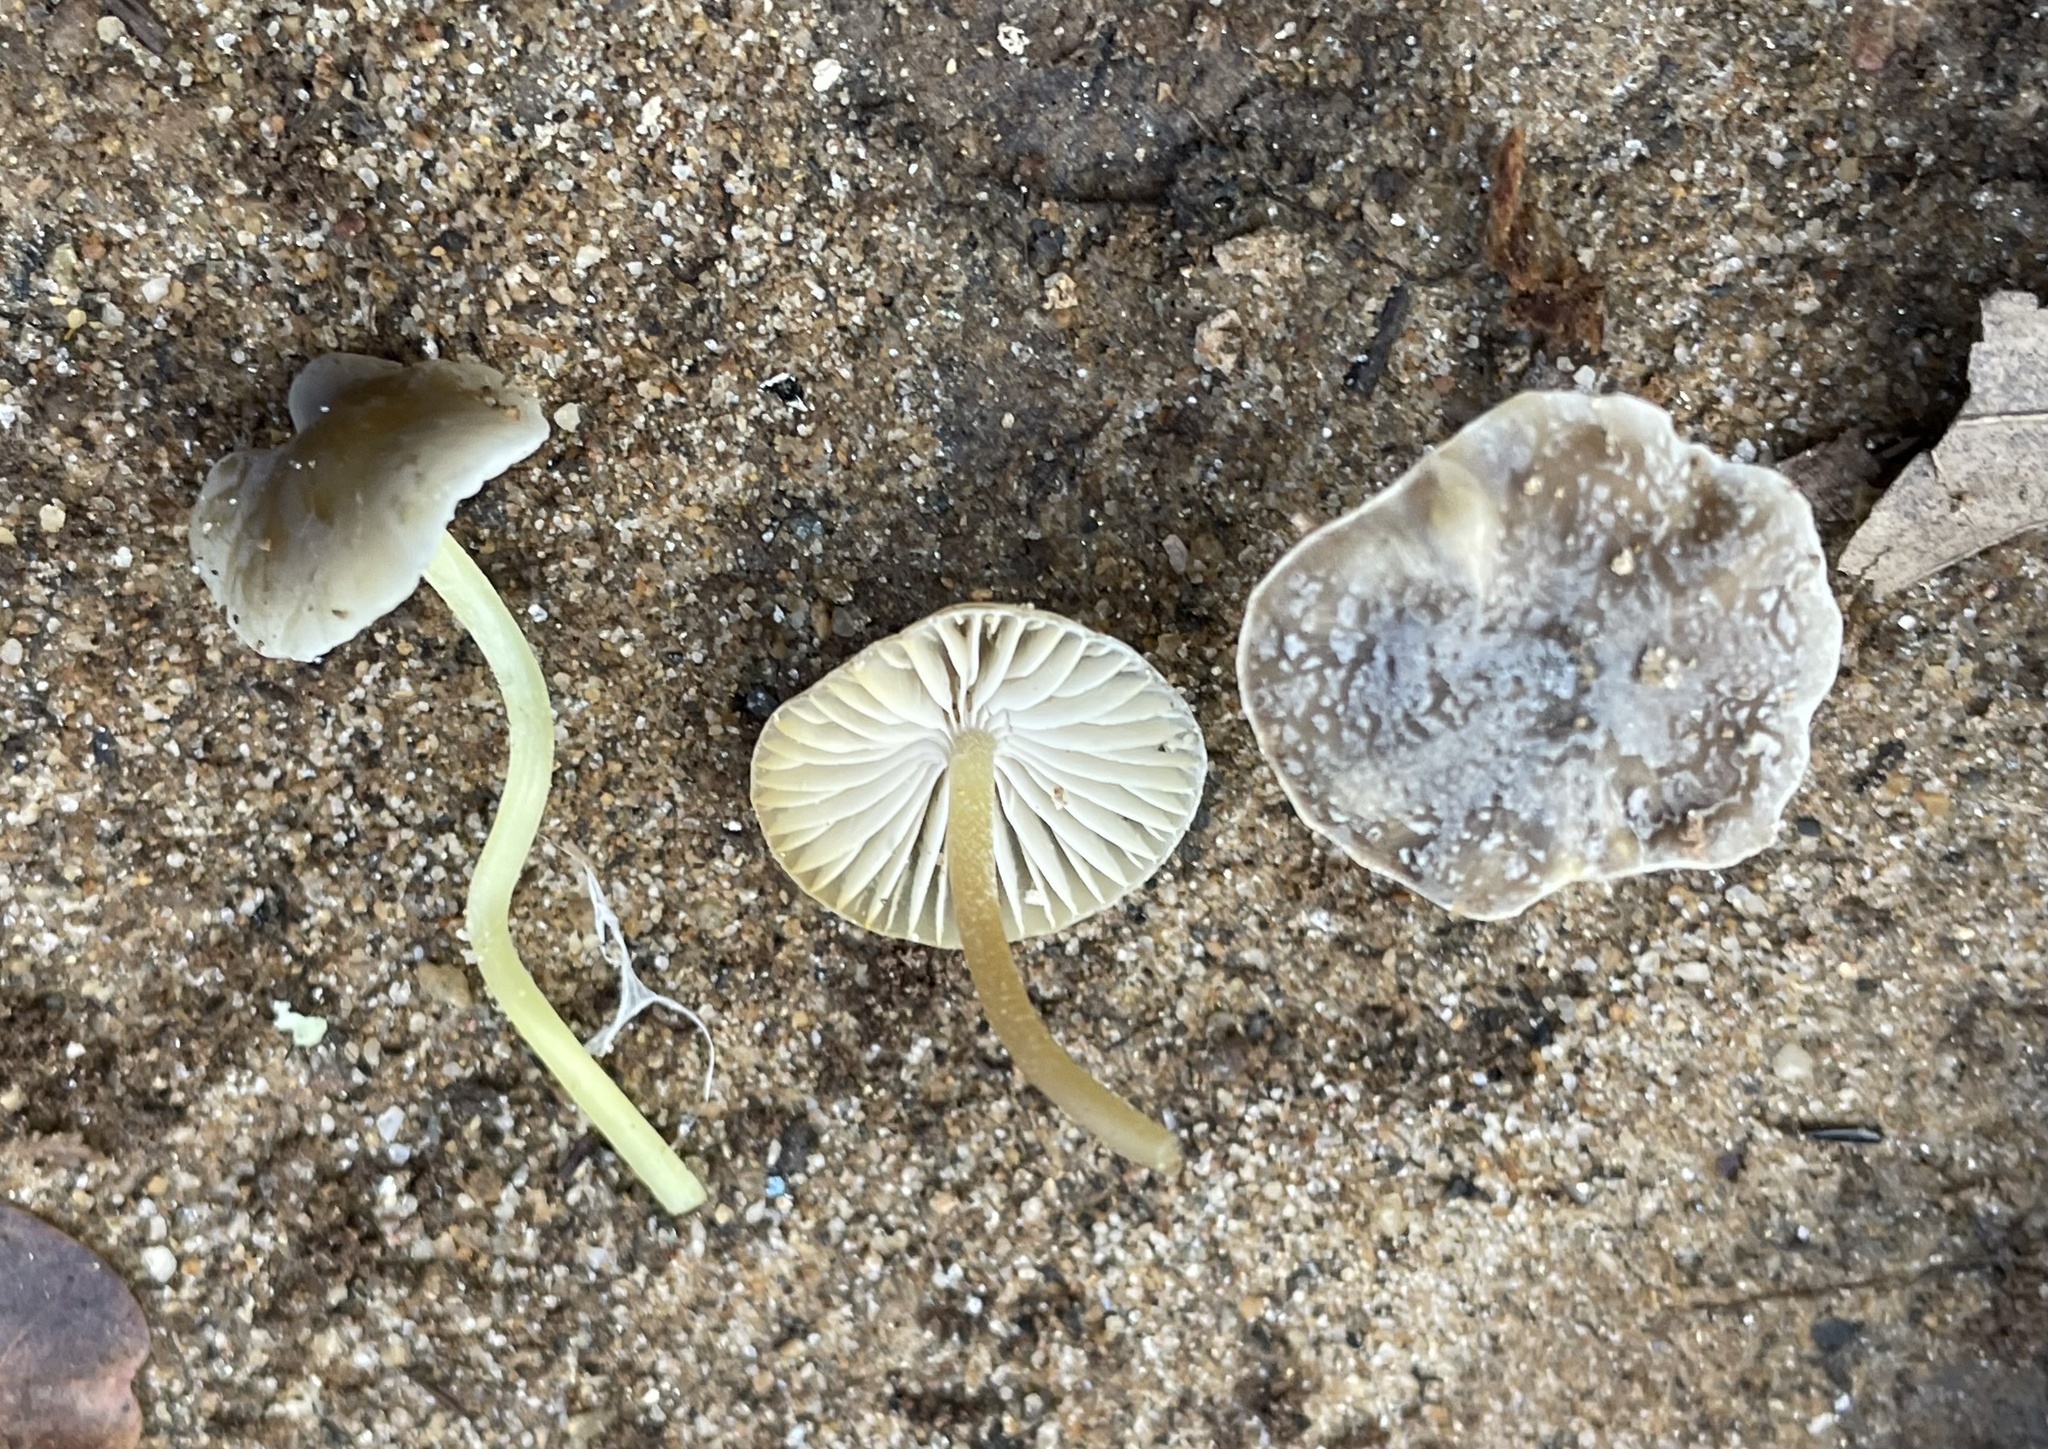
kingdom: Fungi
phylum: Basidiomycota
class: Agaricomycetes
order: Agaricales
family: Mycenaceae
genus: Mycena
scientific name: Mycena griseoviridis
